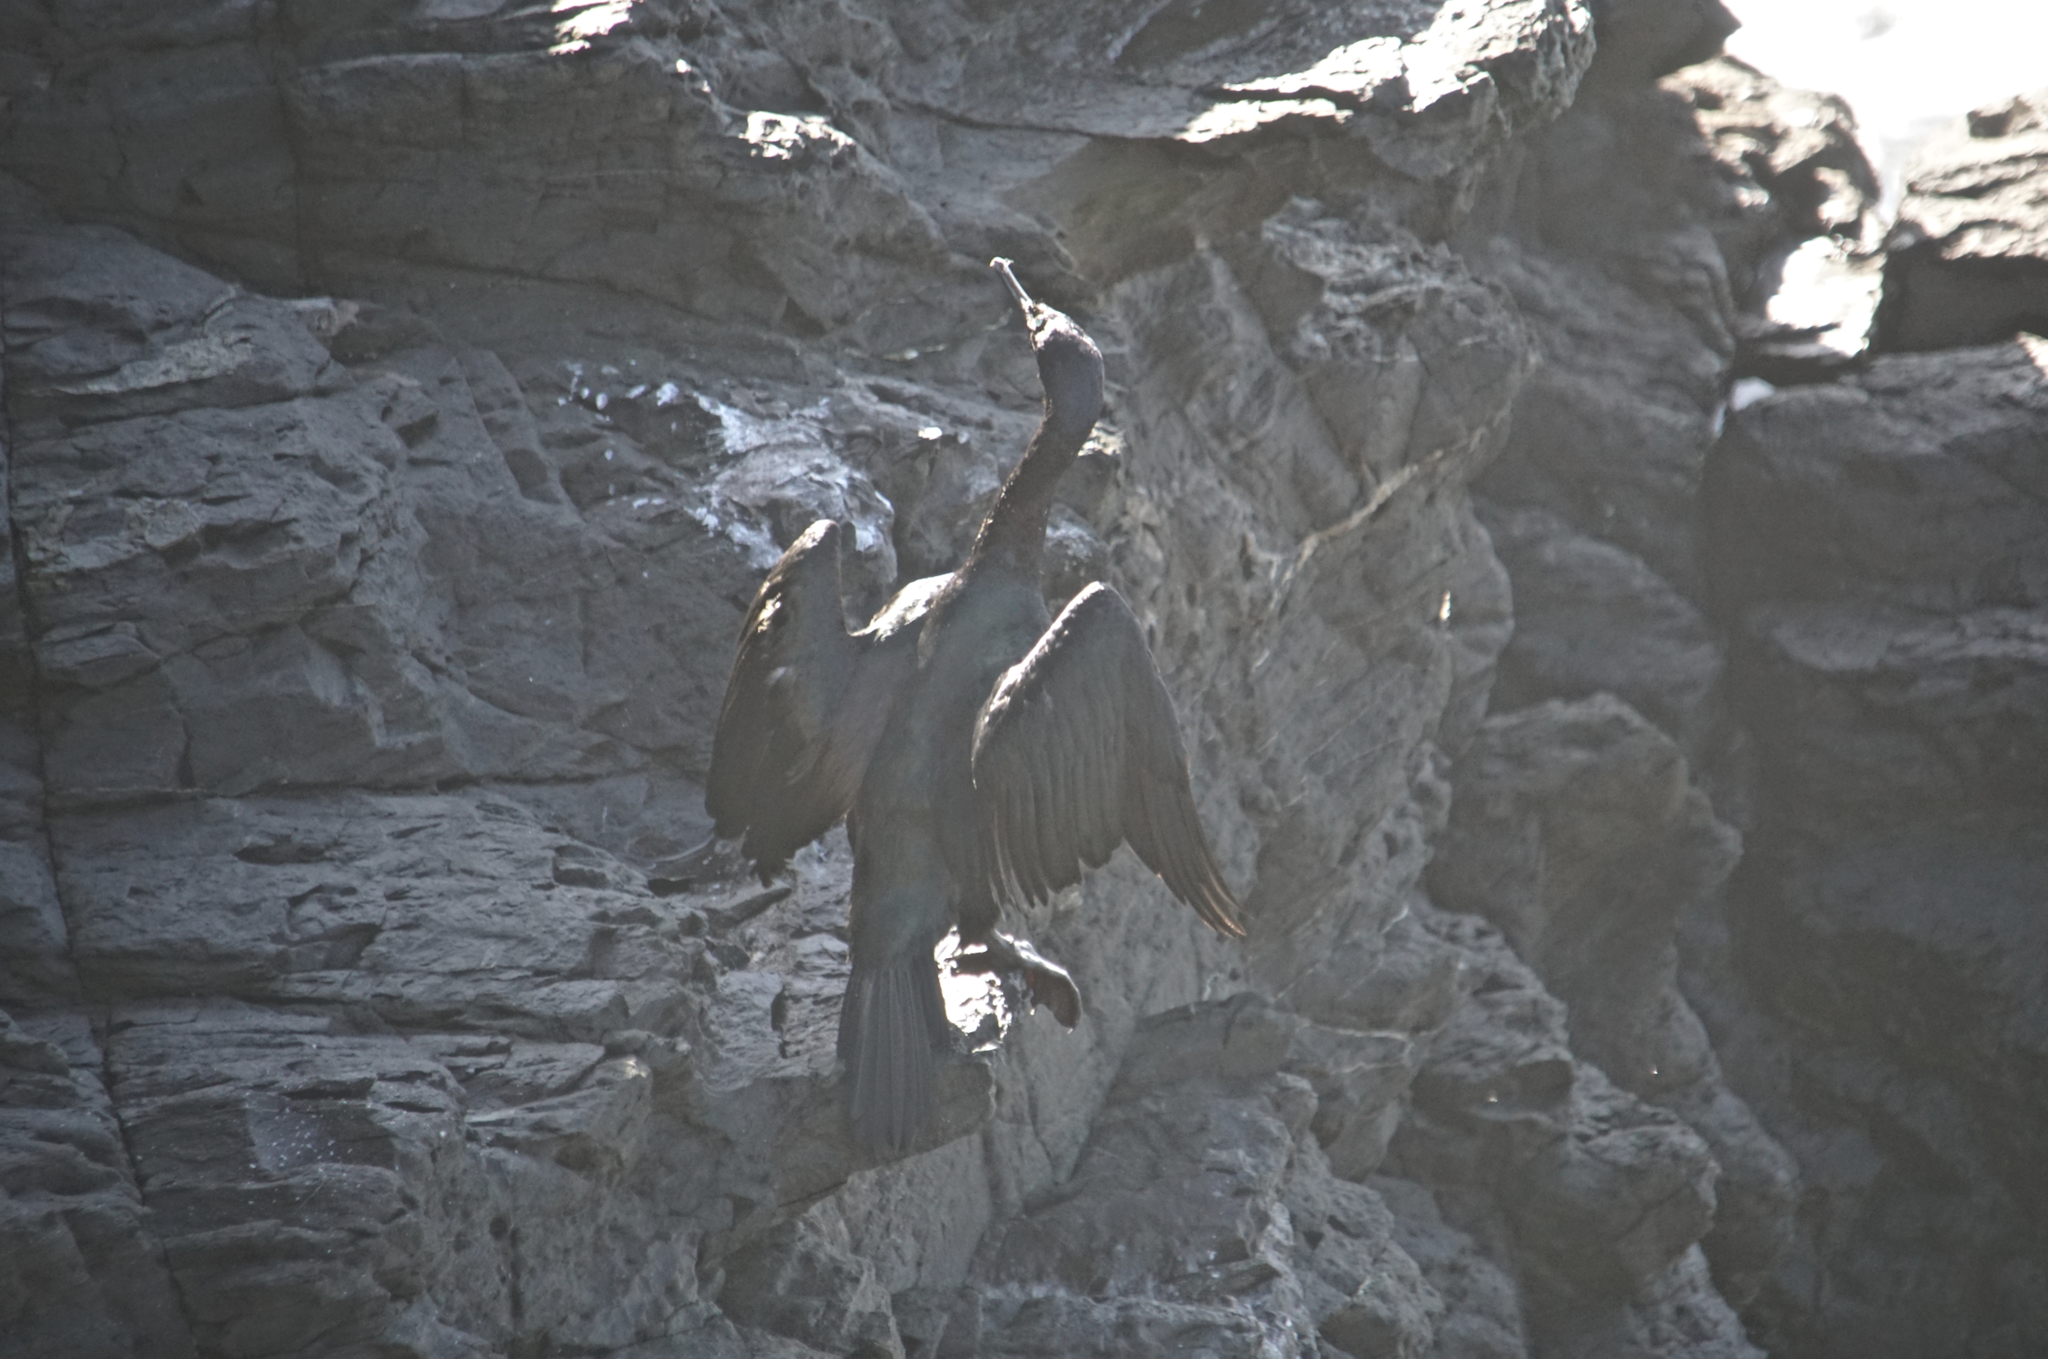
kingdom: Animalia
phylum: Chordata
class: Aves
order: Suliformes
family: Phalacrocoracidae
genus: Phalacrocorax
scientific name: Phalacrocorax pelagicus
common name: Pelagic cormorant
